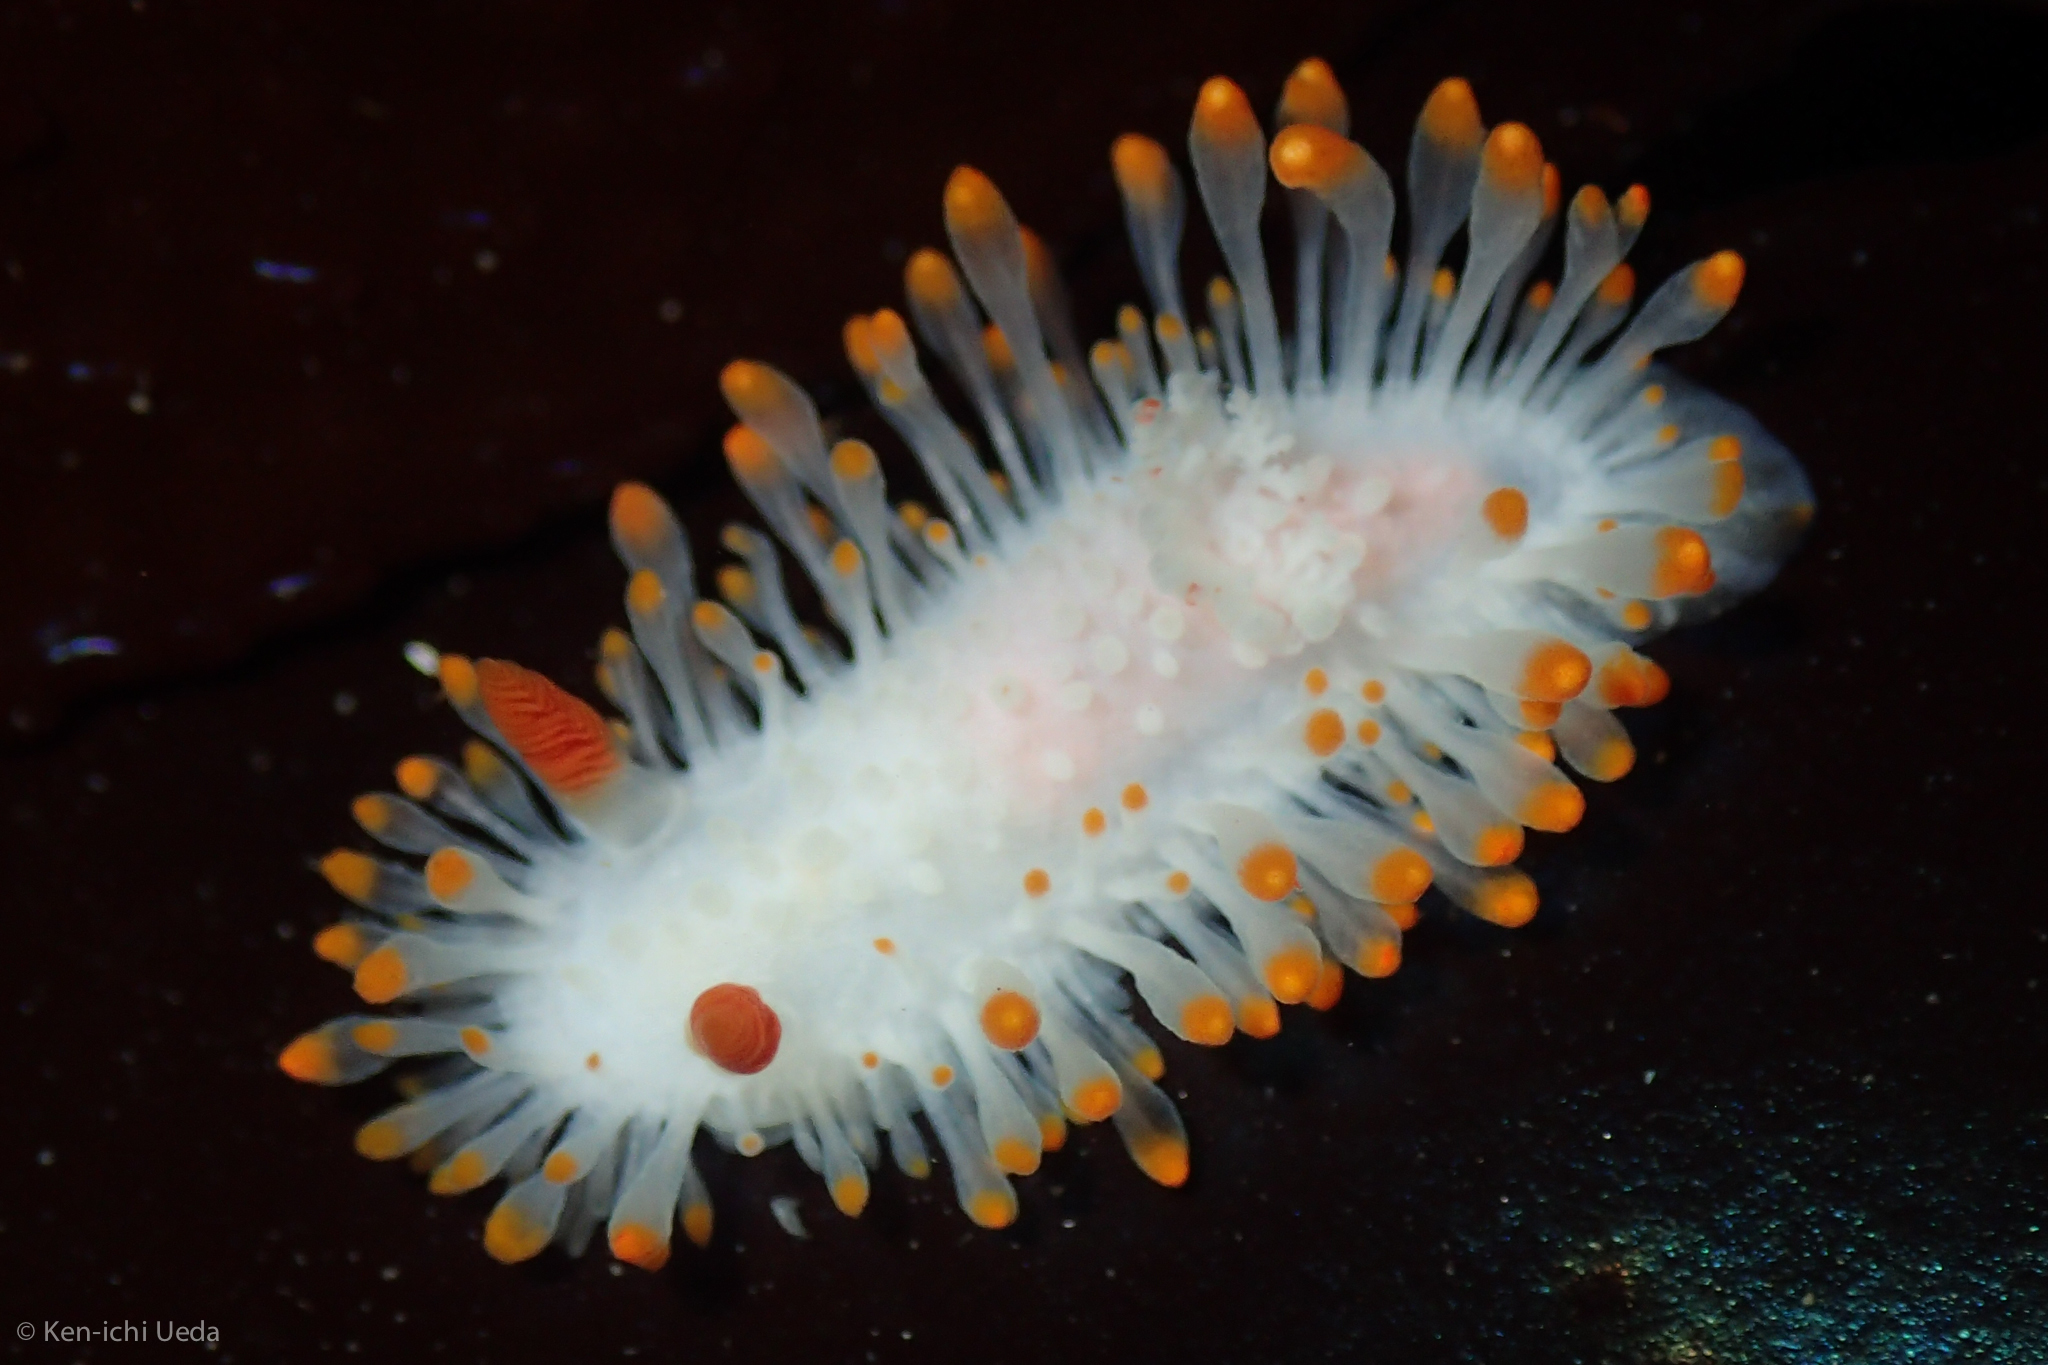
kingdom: Animalia
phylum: Mollusca
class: Gastropoda
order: Nudibranchia
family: Polyceridae
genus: Limacia
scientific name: Limacia cockerelli
